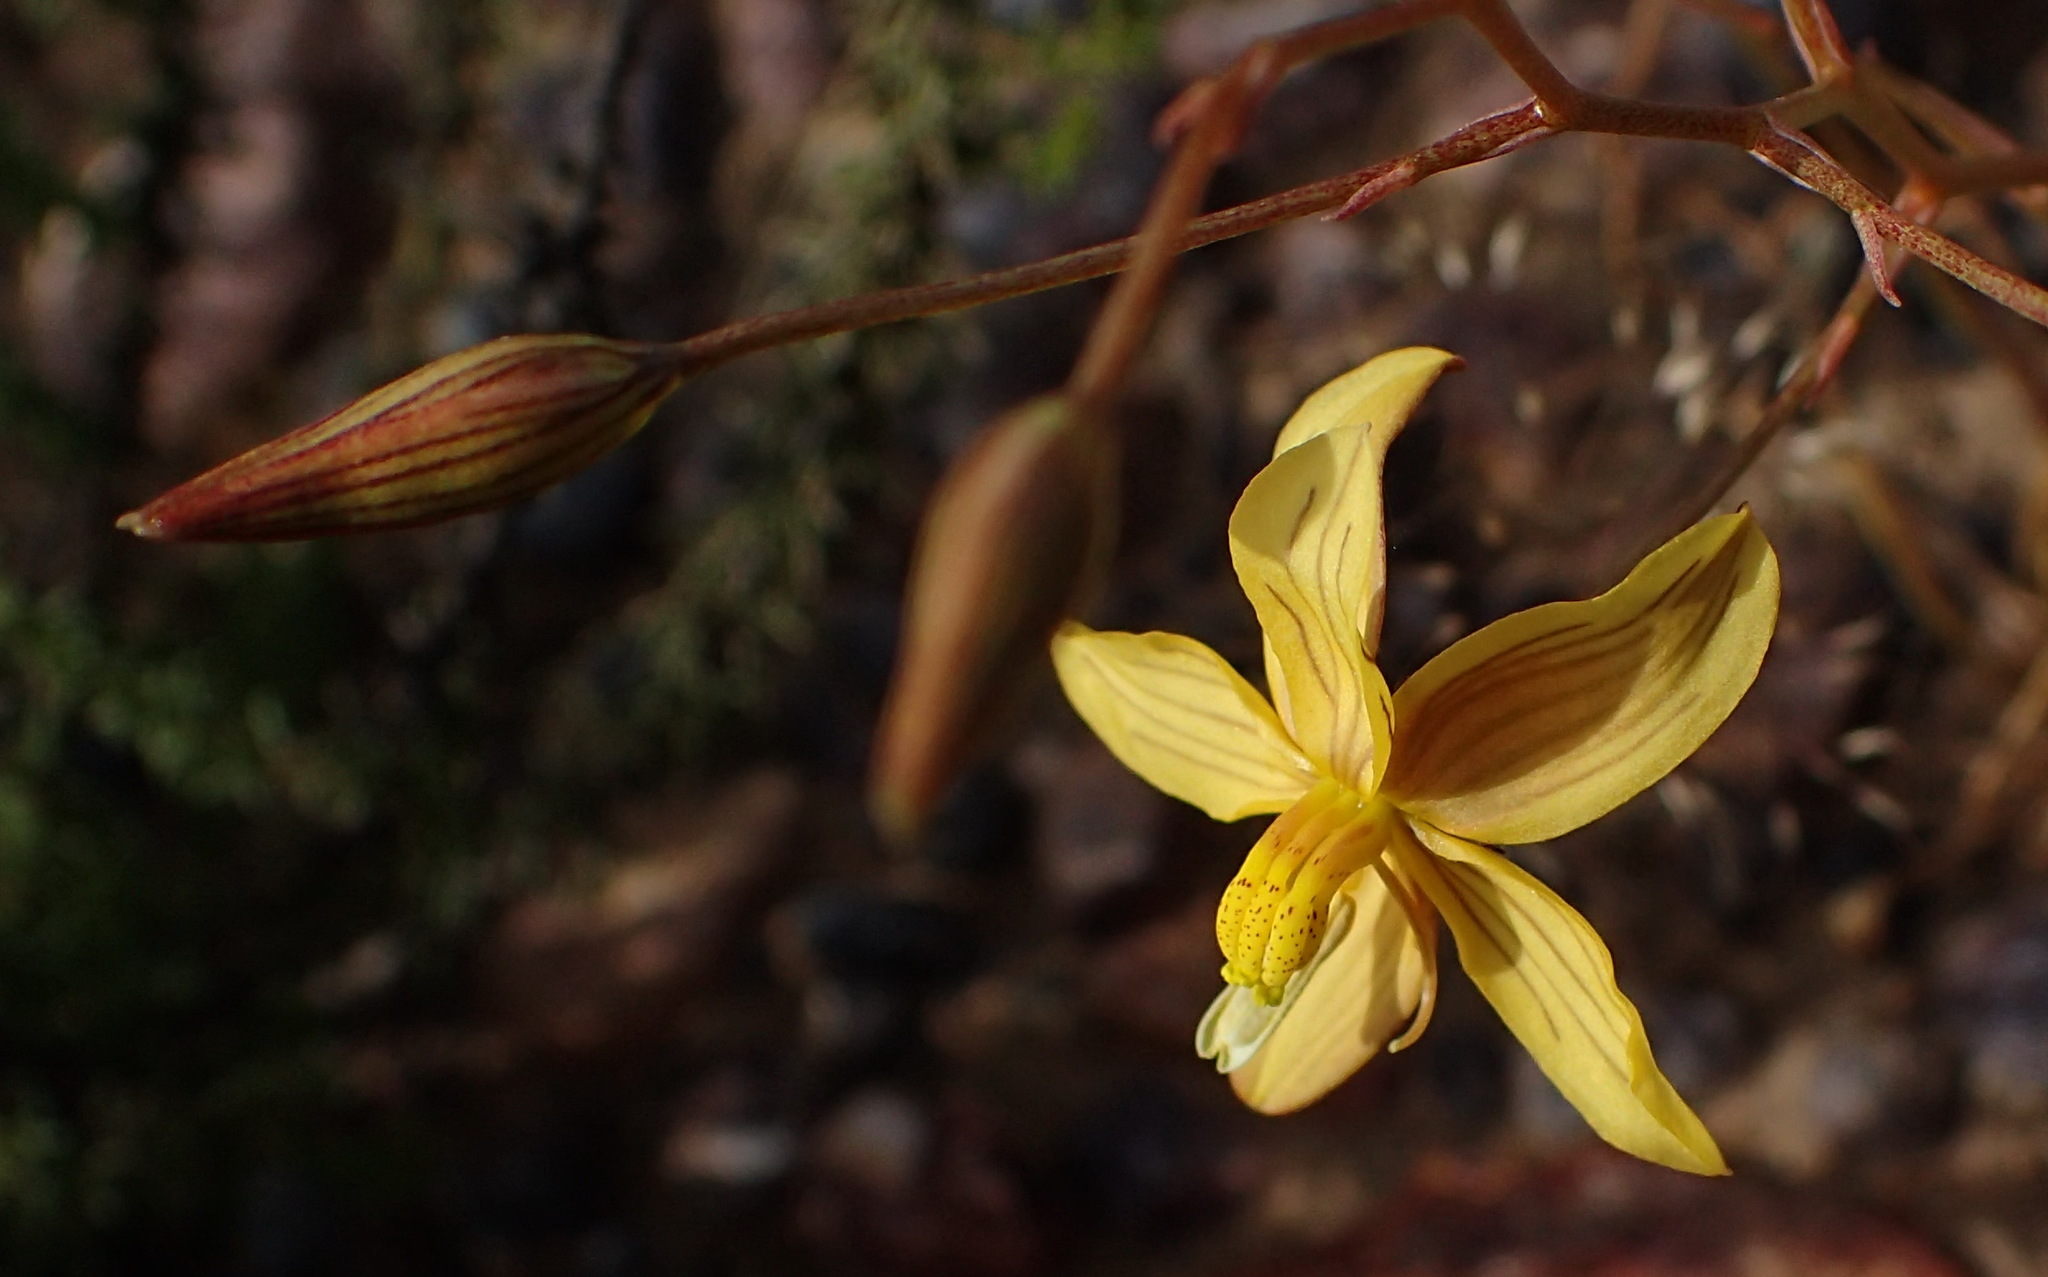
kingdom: Plantae
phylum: Tracheophyta
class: Liliopsida
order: Asparagales
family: Tecophilaeaceae
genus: Cyanella
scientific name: Cyanella lutea
